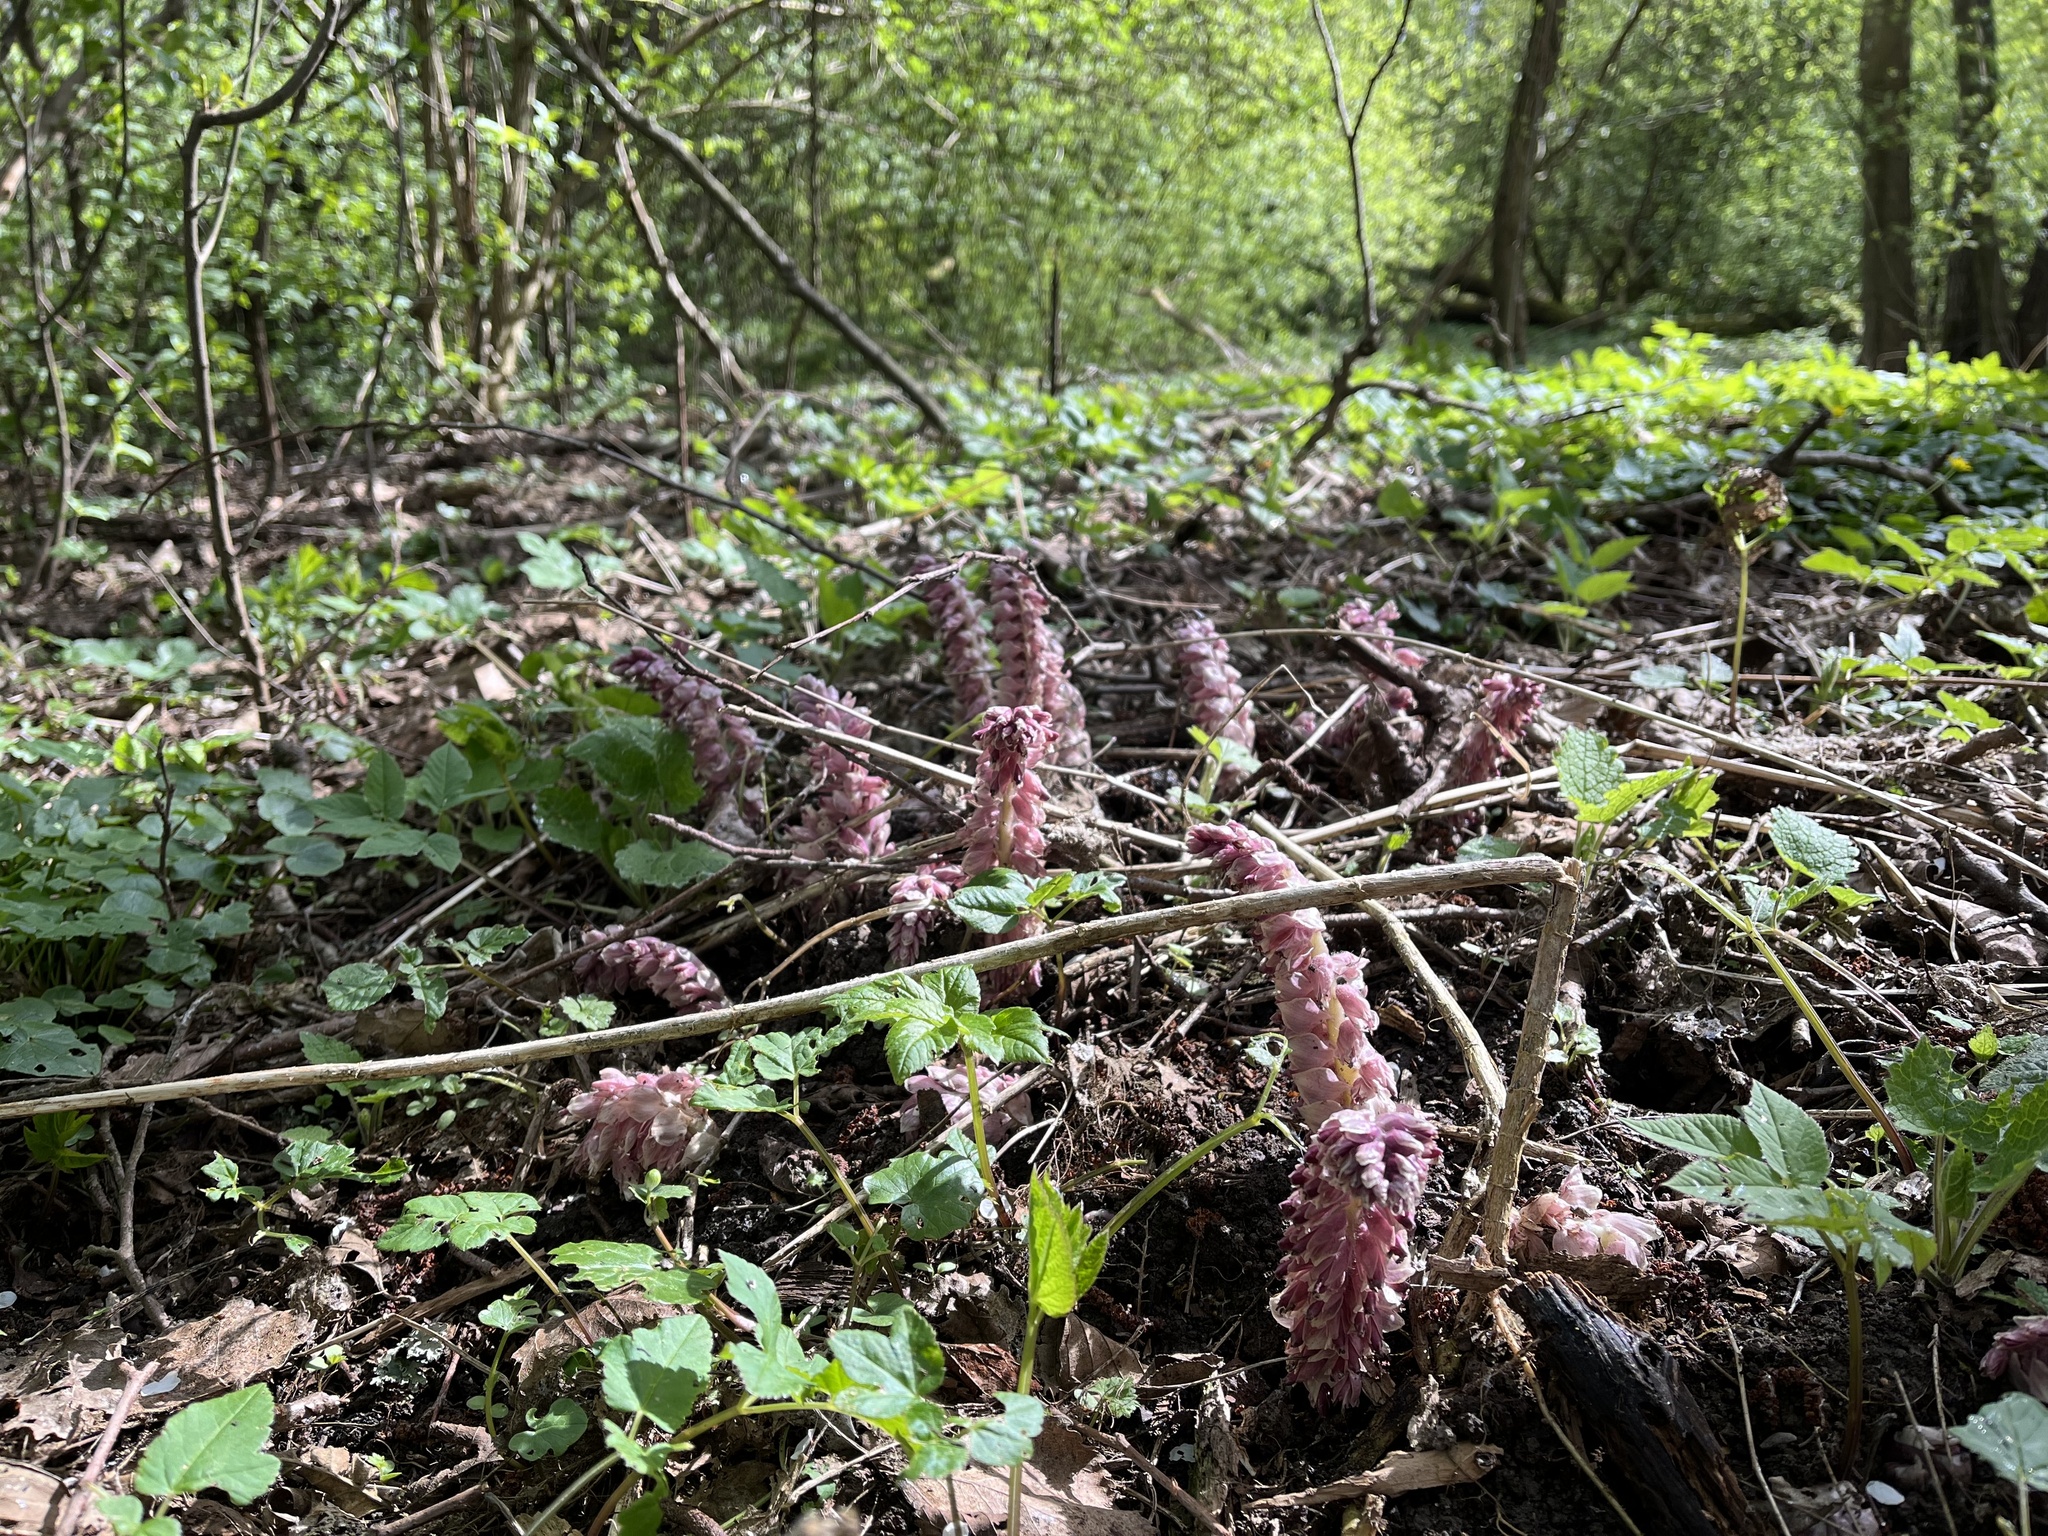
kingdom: Plantae
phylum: Tracheophyta
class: Magnoliopsida
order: Lamiales
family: Orobanchaceae
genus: Lathraea
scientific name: Lathraea squamaria
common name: Toothwort
